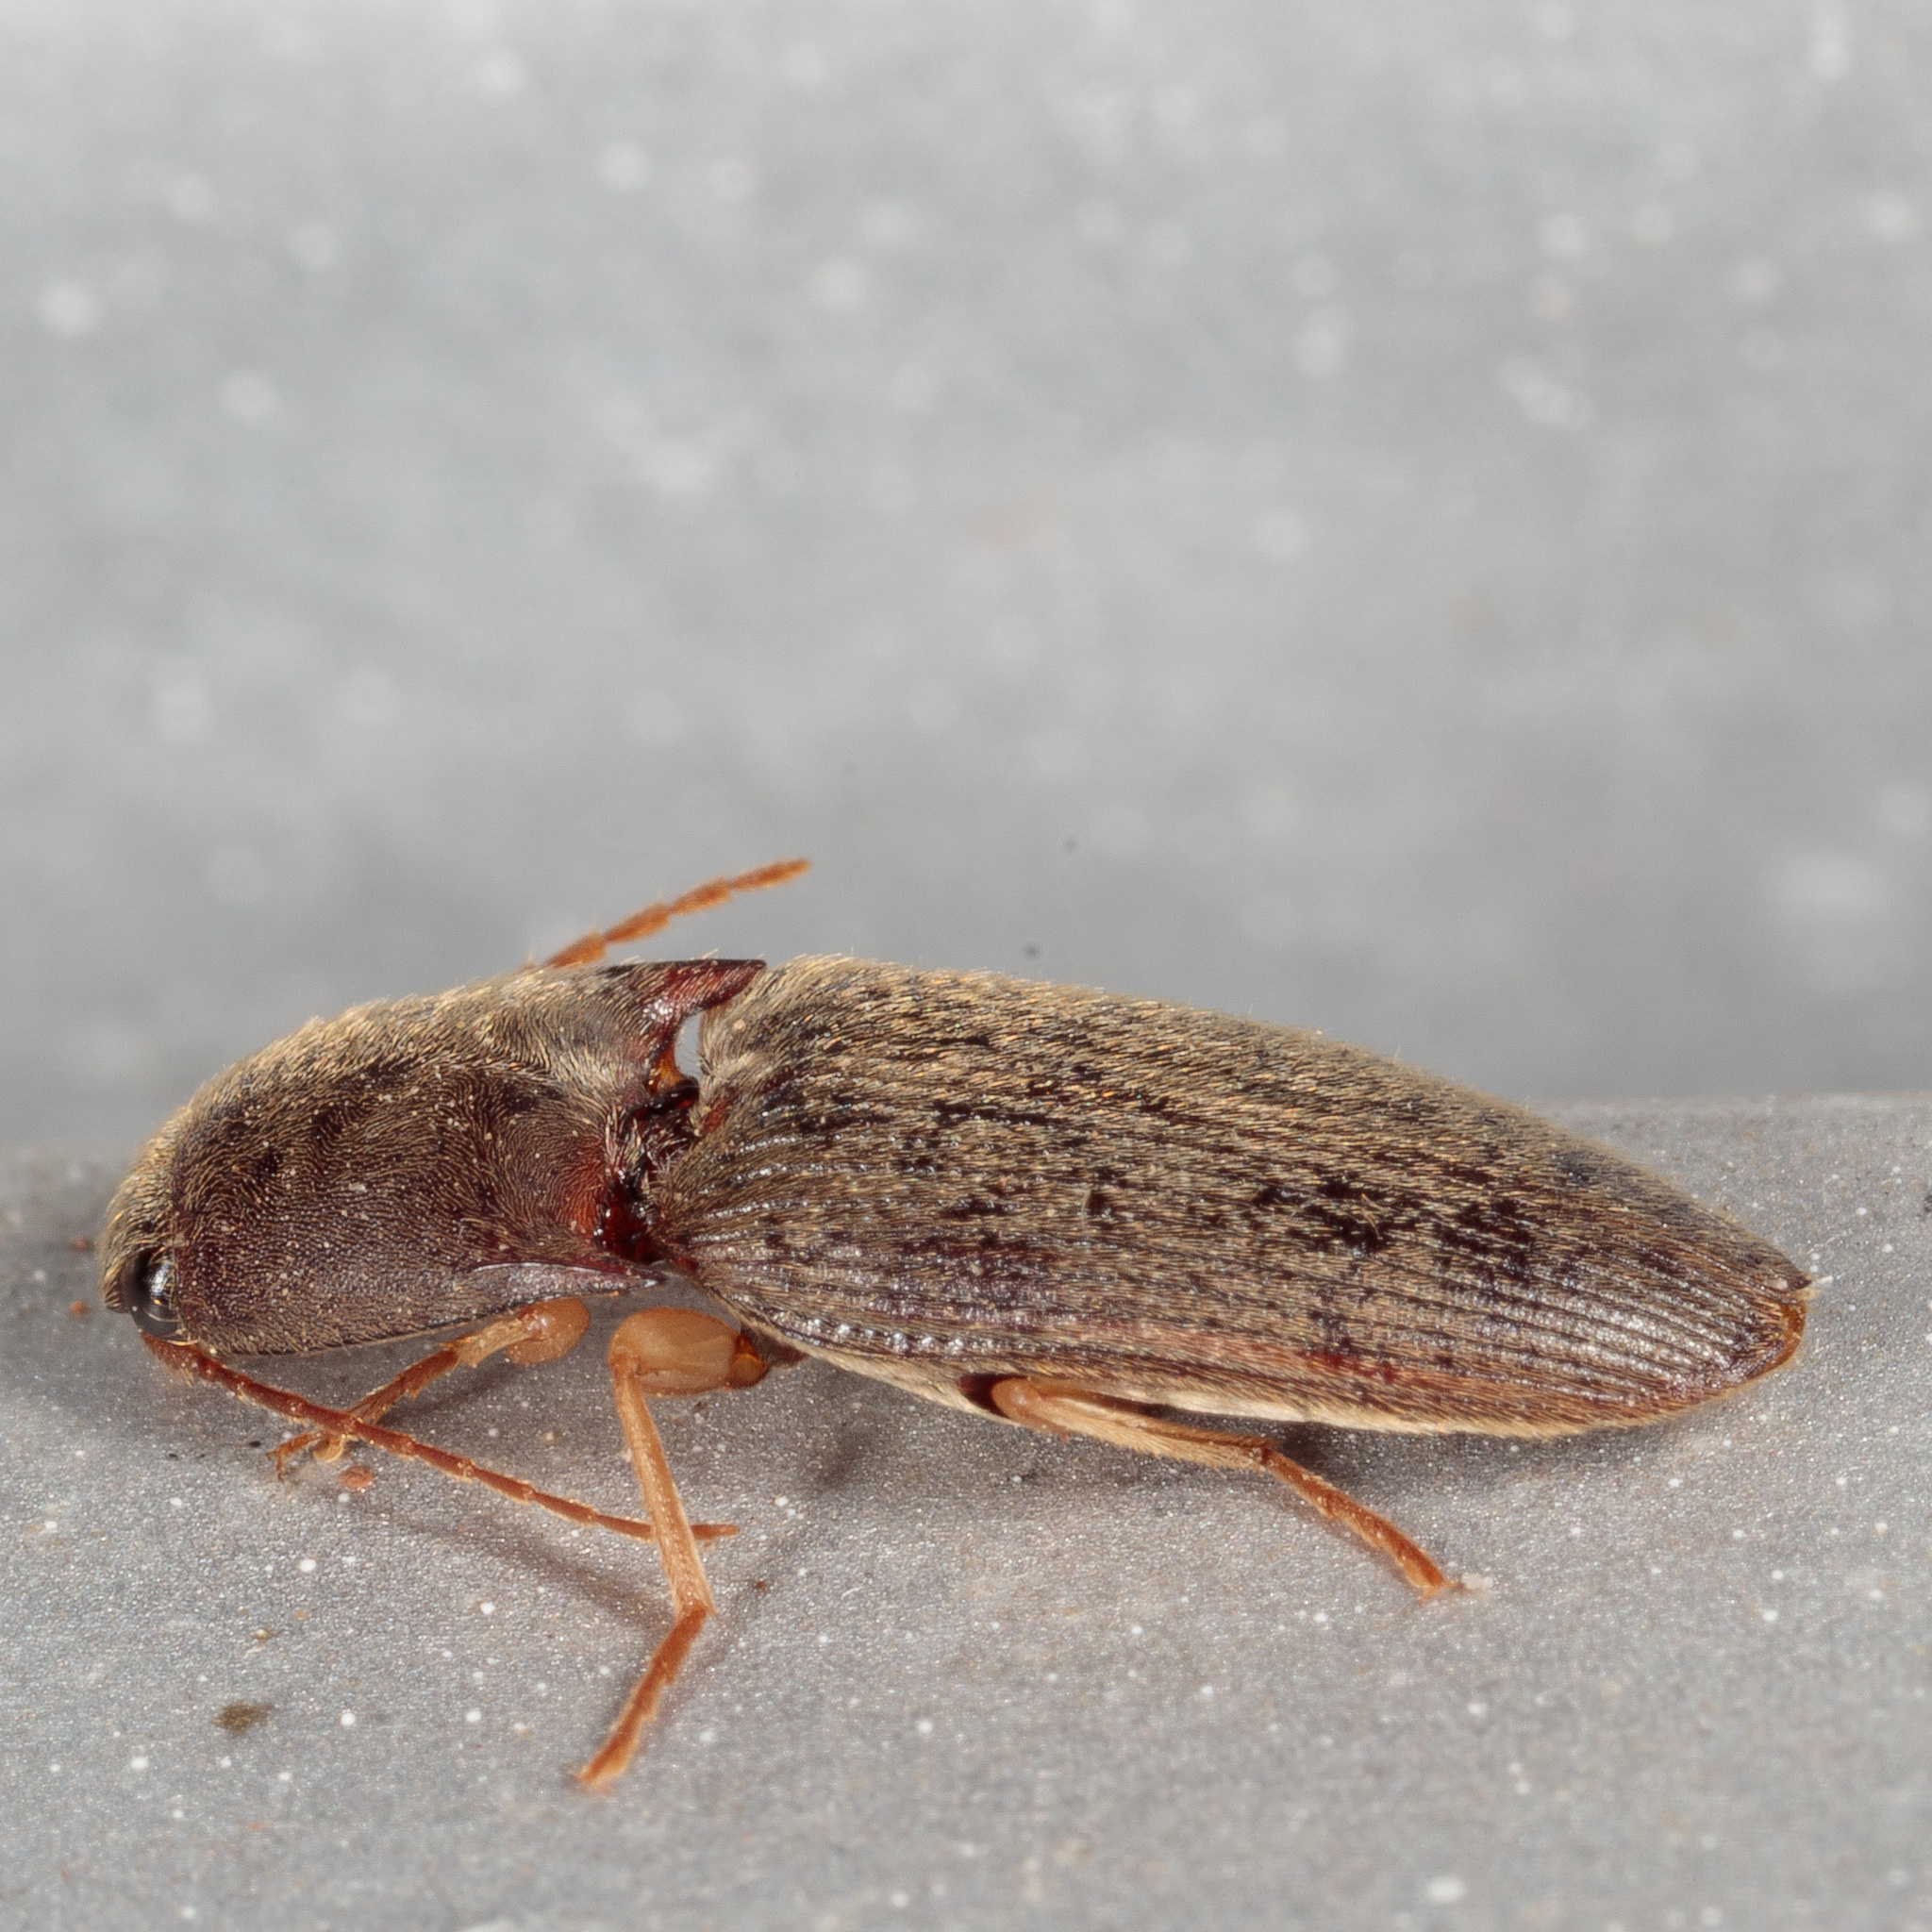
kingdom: Animalia
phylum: Arthropoda
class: Insecta
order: Coleoptera
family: Elateridae
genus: Conoderus
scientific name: Conoderus exsul
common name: Click beetle
